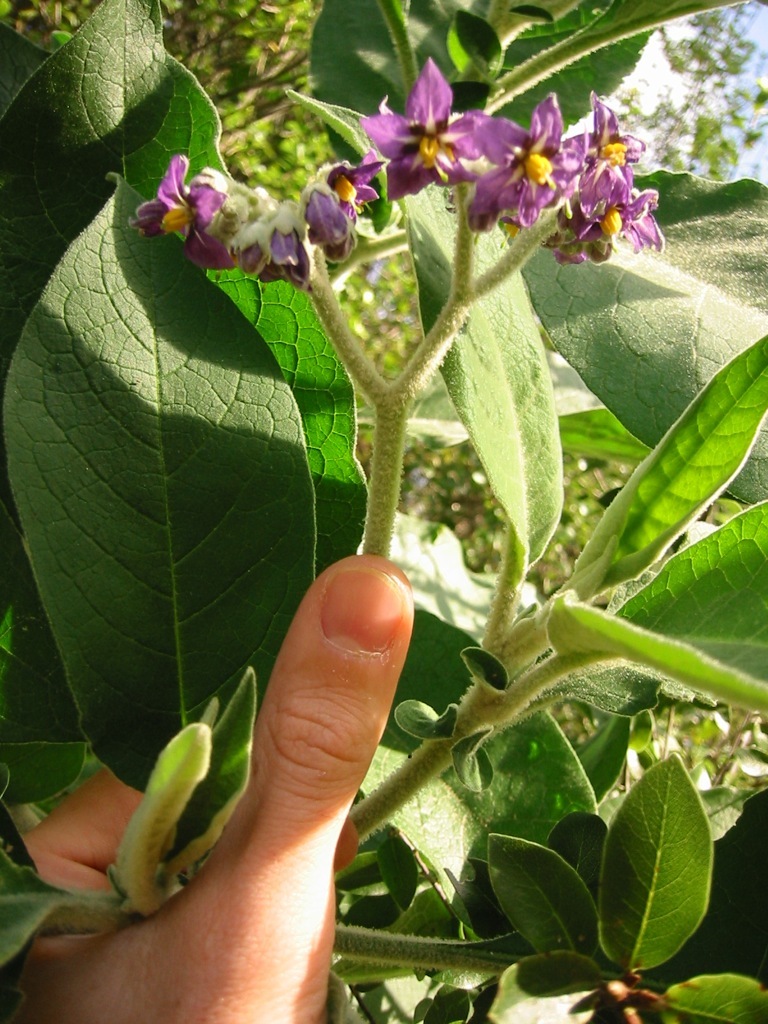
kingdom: Plantae
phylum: Tracheophyta
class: Magnoliopsida
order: Solanales
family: Solanaceae
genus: Solanum
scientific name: Solanum mauritianum
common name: Earleaf nightshade
